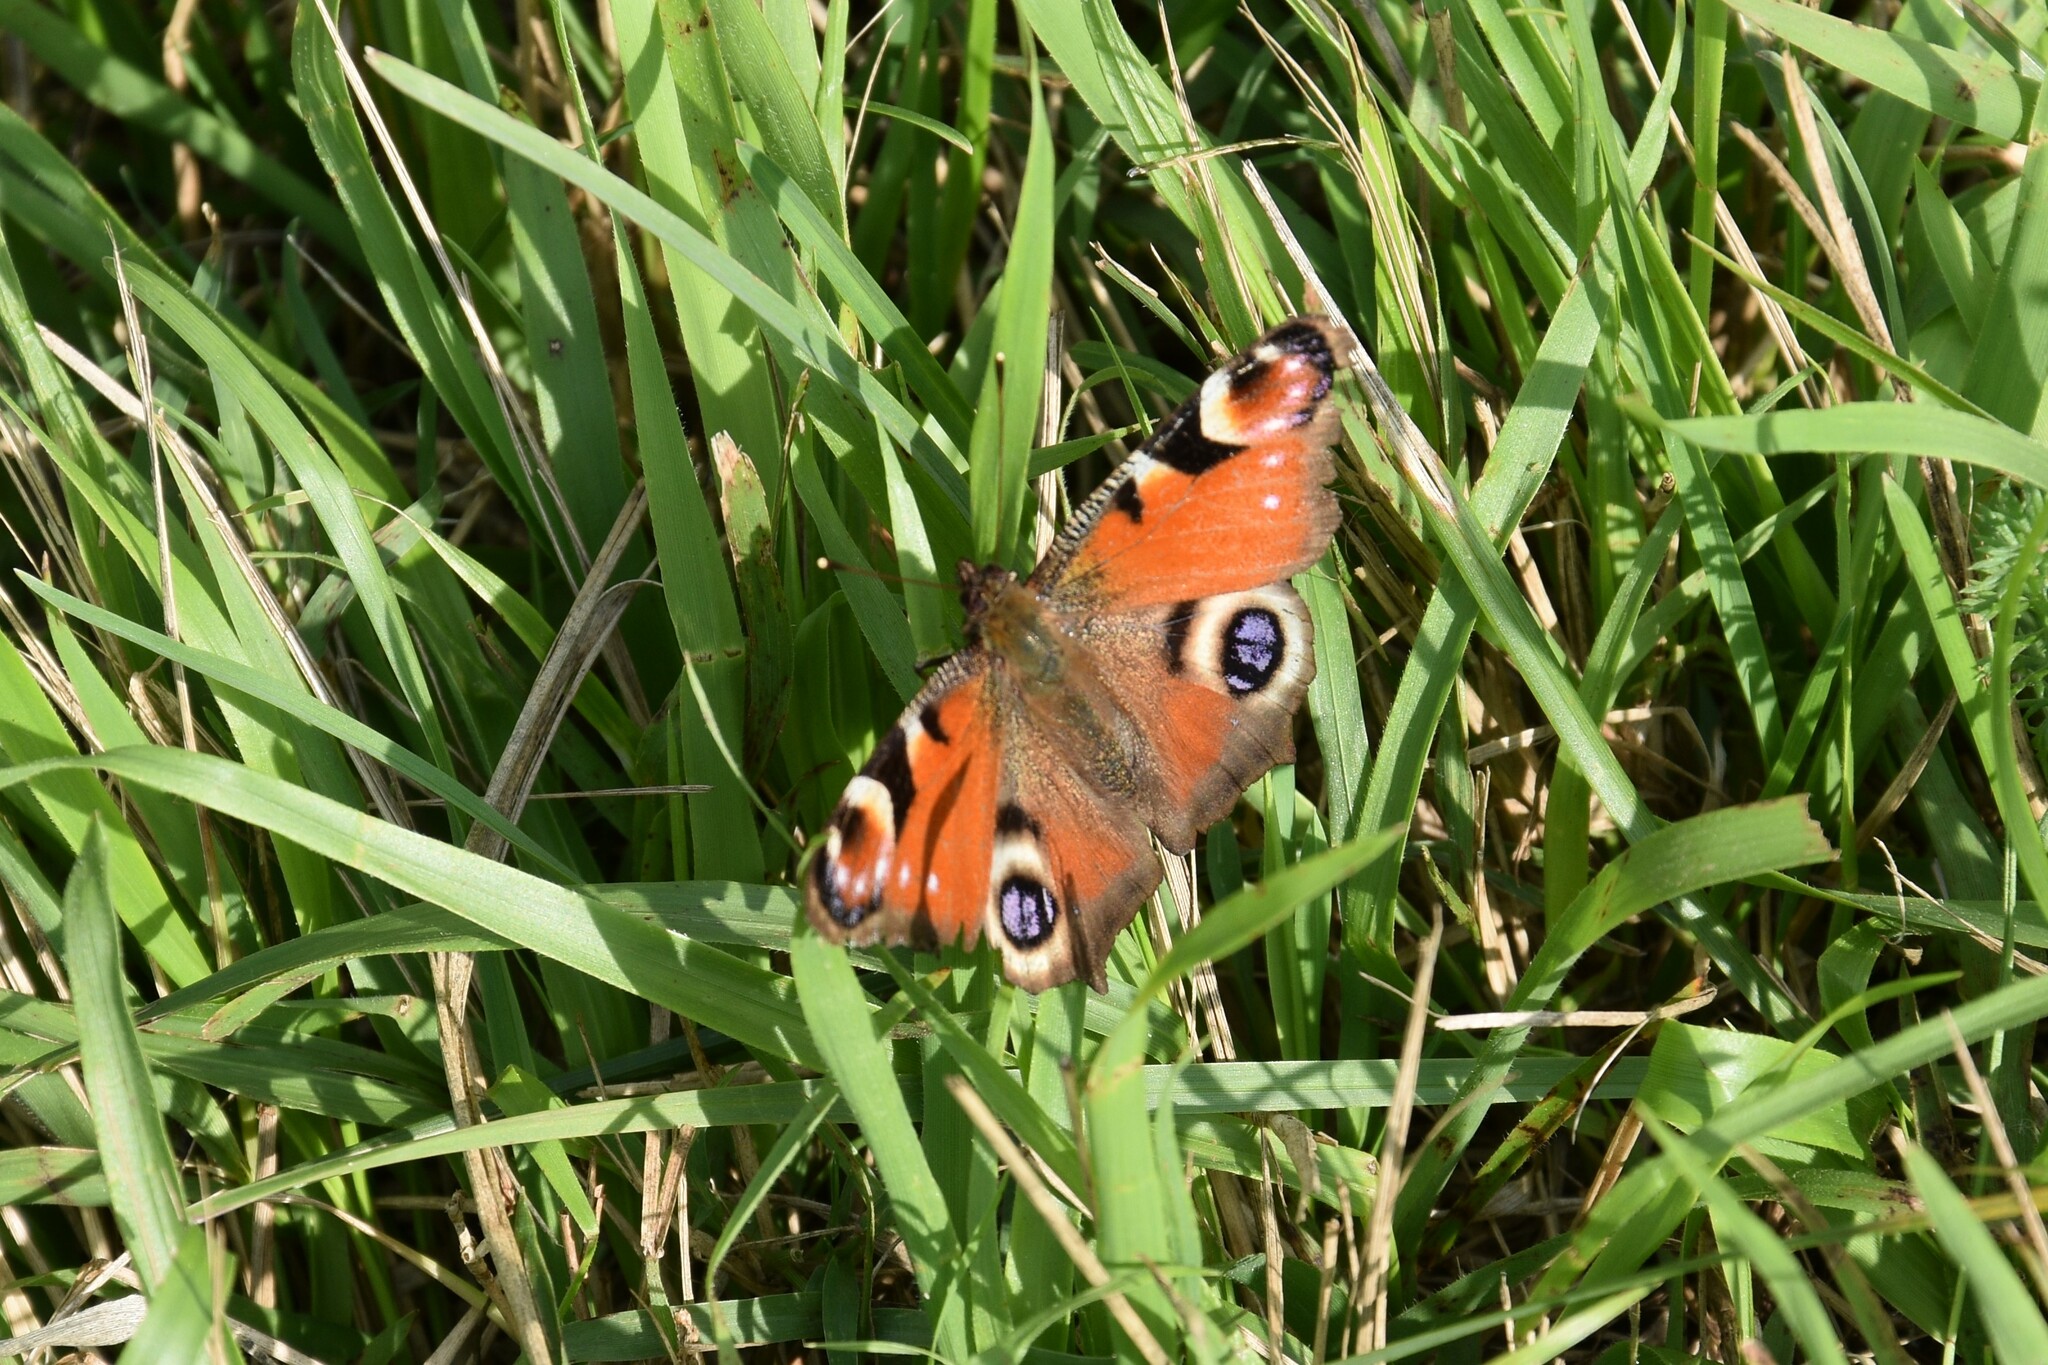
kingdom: Animalia
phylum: Arthropoda
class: Insecta
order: Lepidoptera
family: Nymphalidae
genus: Aglais
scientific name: Aglais io
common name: Peacock
